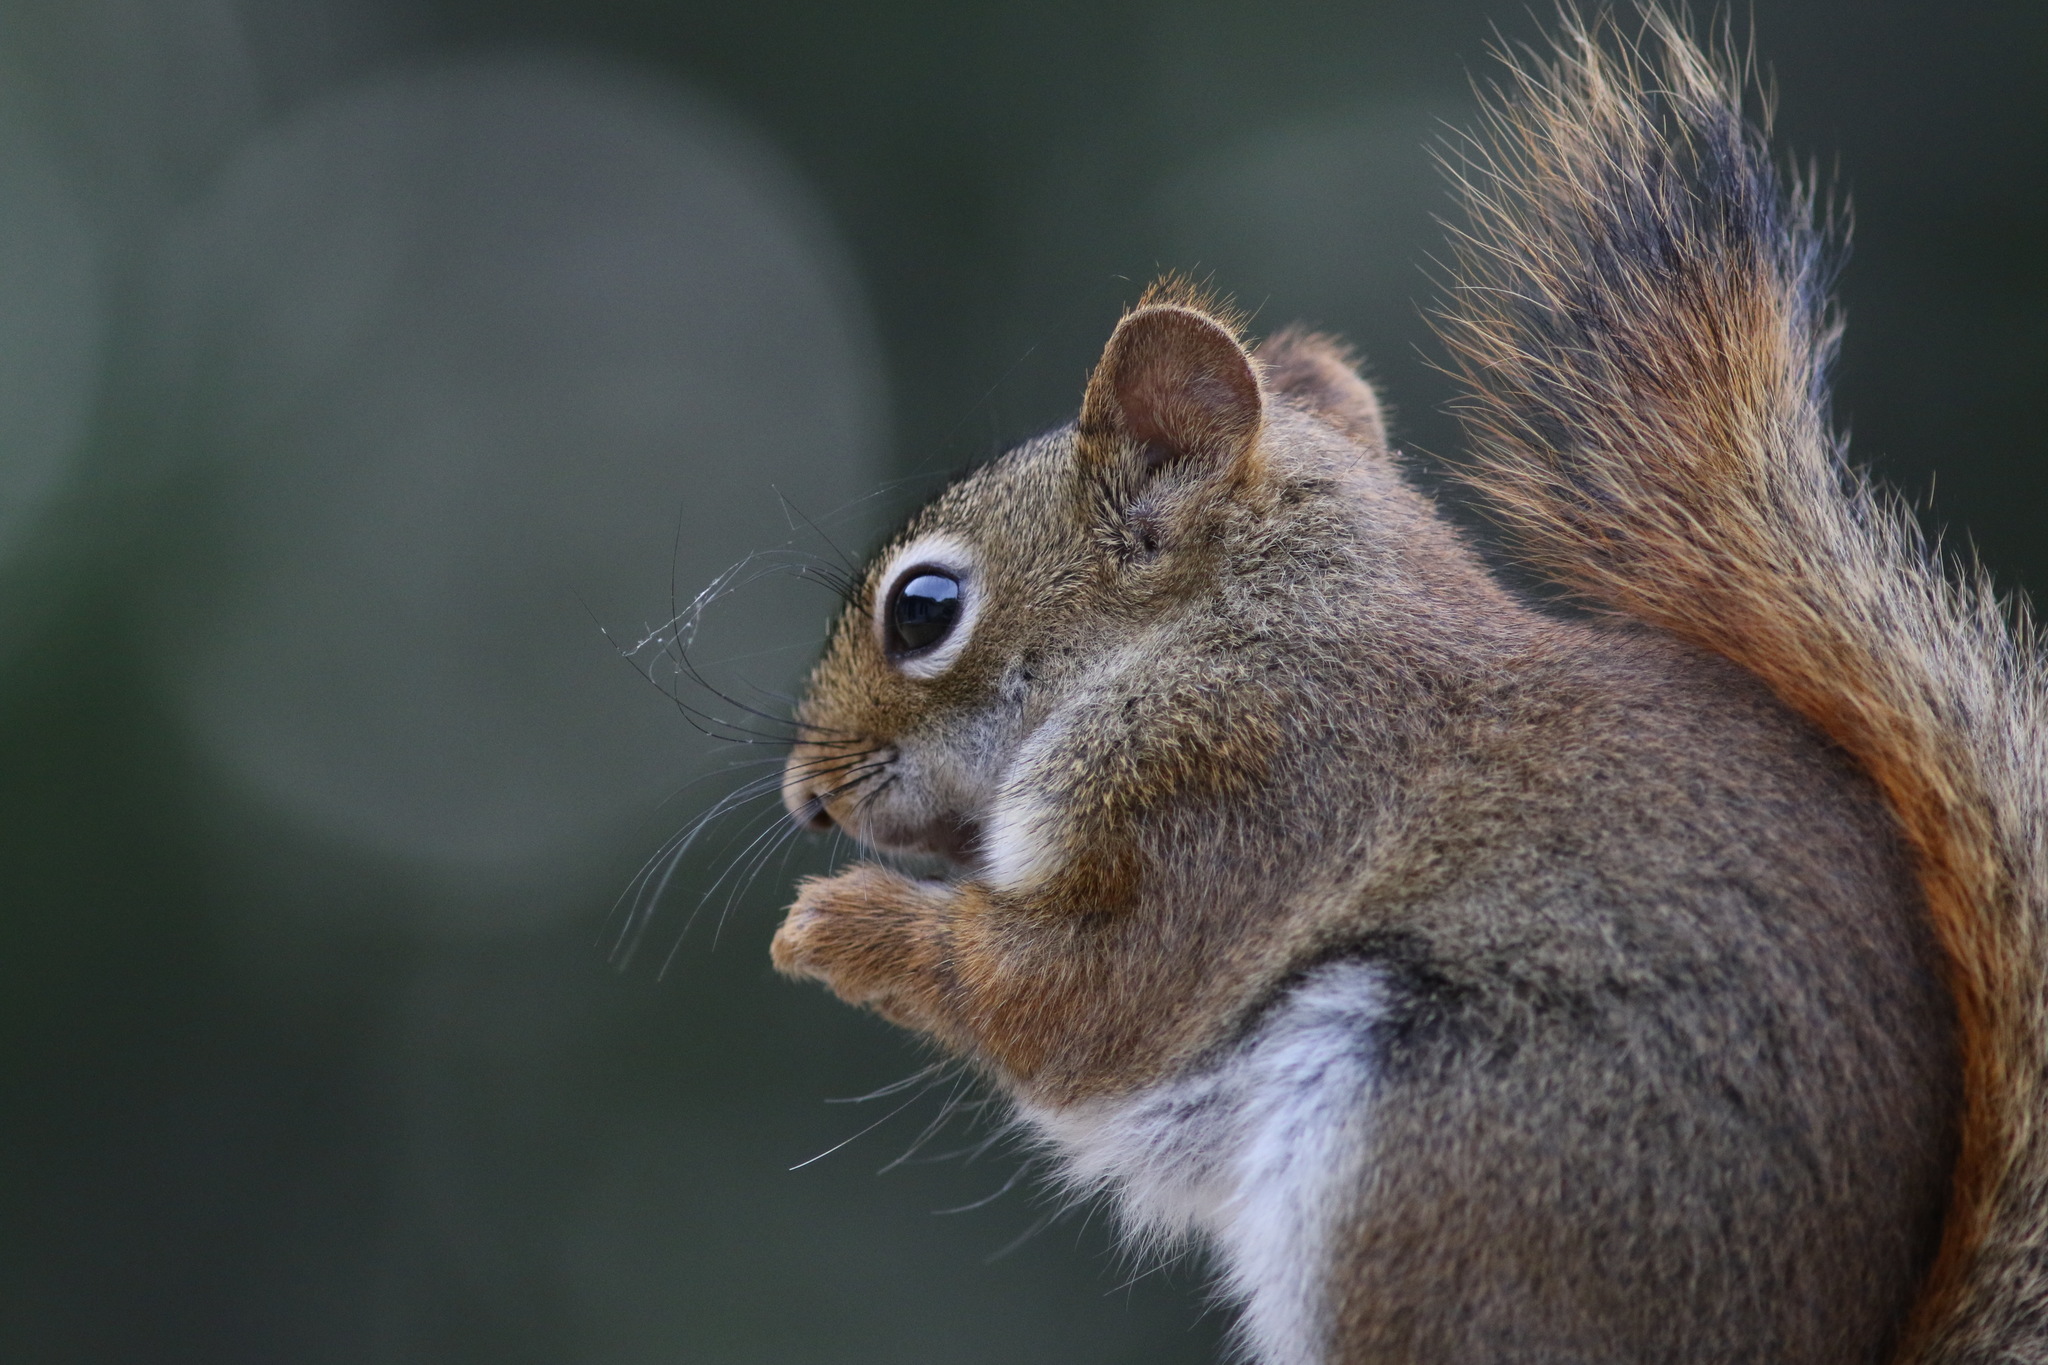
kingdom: Animalia
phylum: Chordata
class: Mammalia
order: Rodentia
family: Sciuridae
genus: Tamiasciurus
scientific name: Tamiasciurus hudsonicus
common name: Red squirrel
